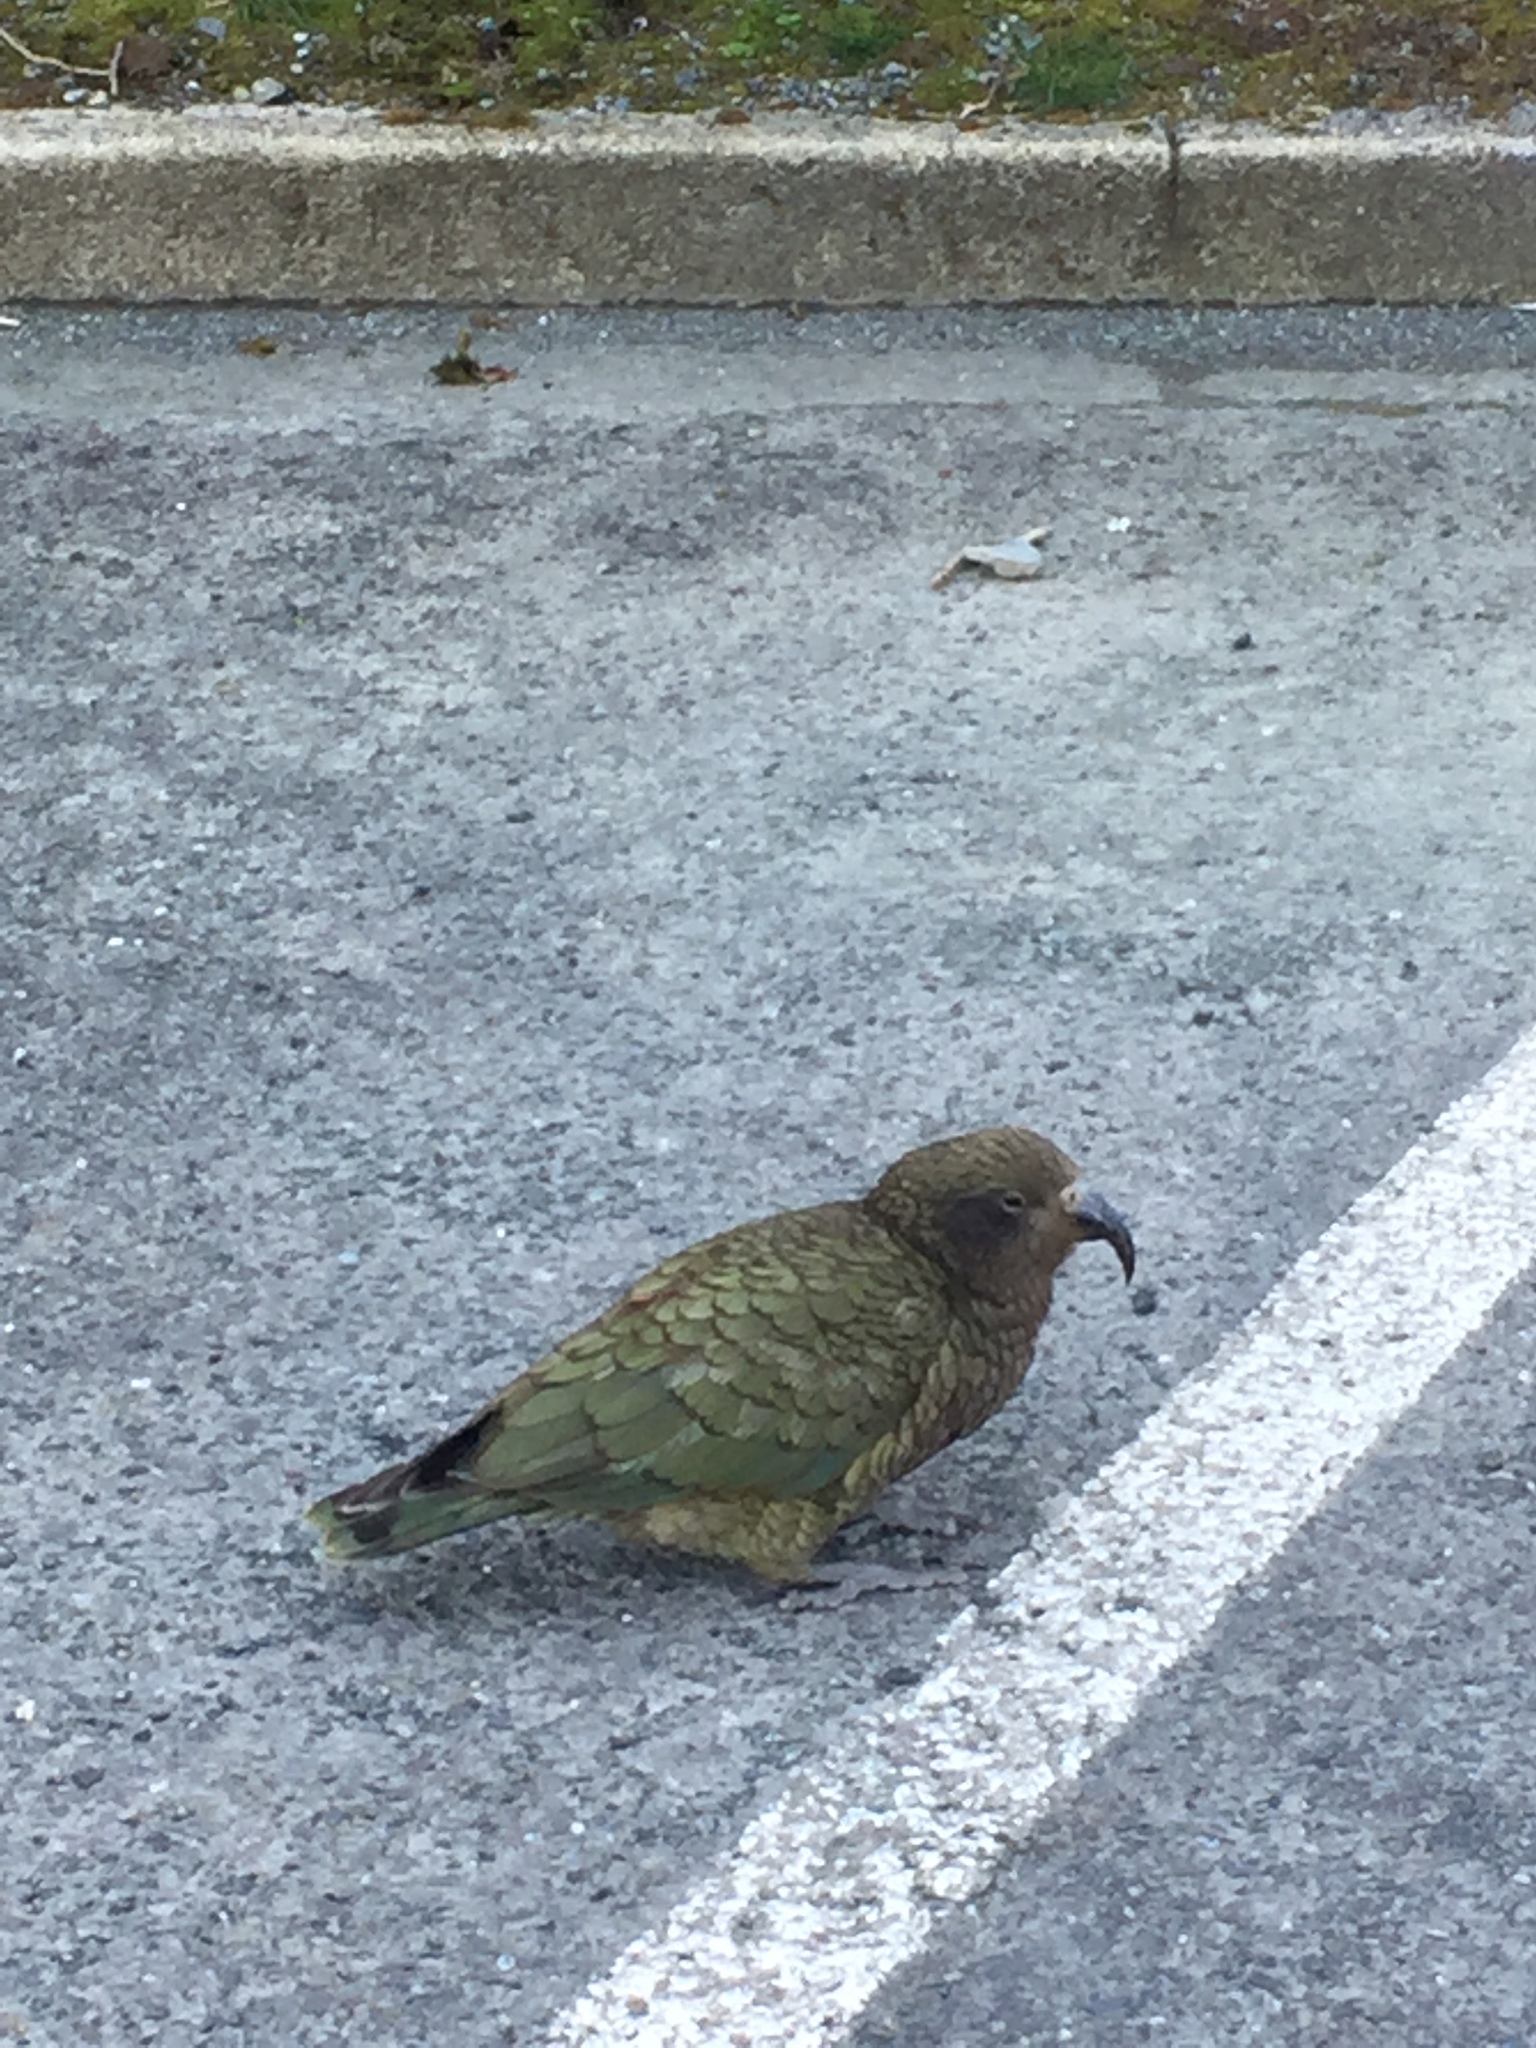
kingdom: Animalia
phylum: Chordata
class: Aves
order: Psittaciformes
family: Psittacidae
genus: Nestor
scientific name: Nestor notabilis
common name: Kea
